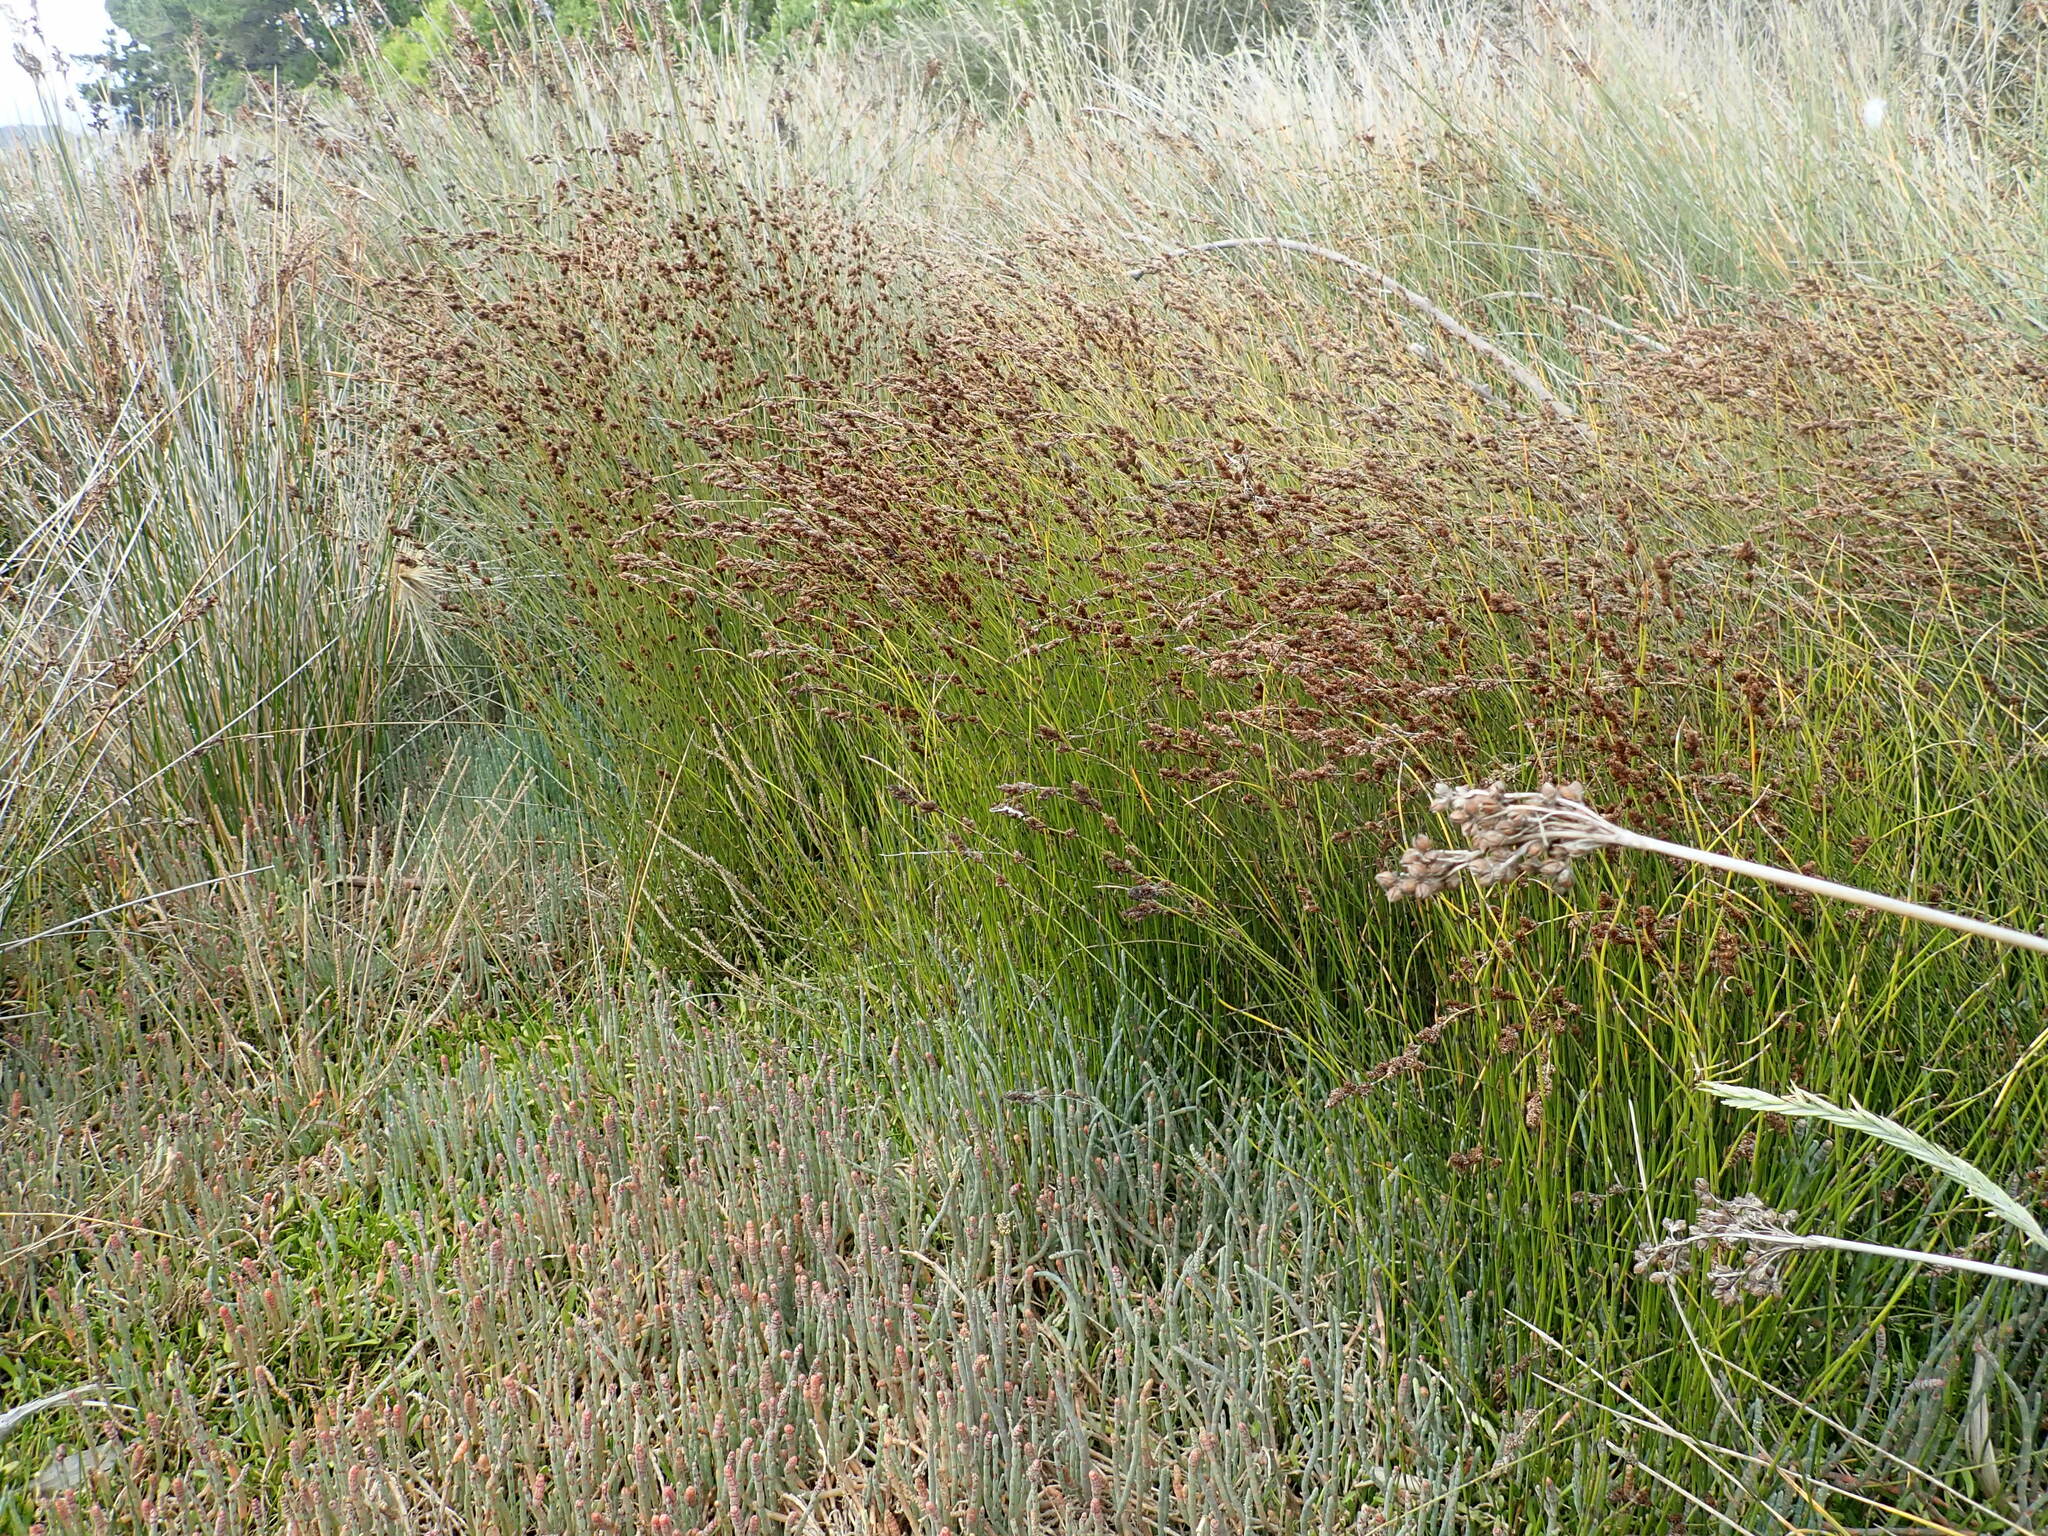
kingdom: Plantae
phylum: Tracheophyta
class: Liliopsida
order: Poales
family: Restionaceae
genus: Apodasmia
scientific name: Apodasmia similis
